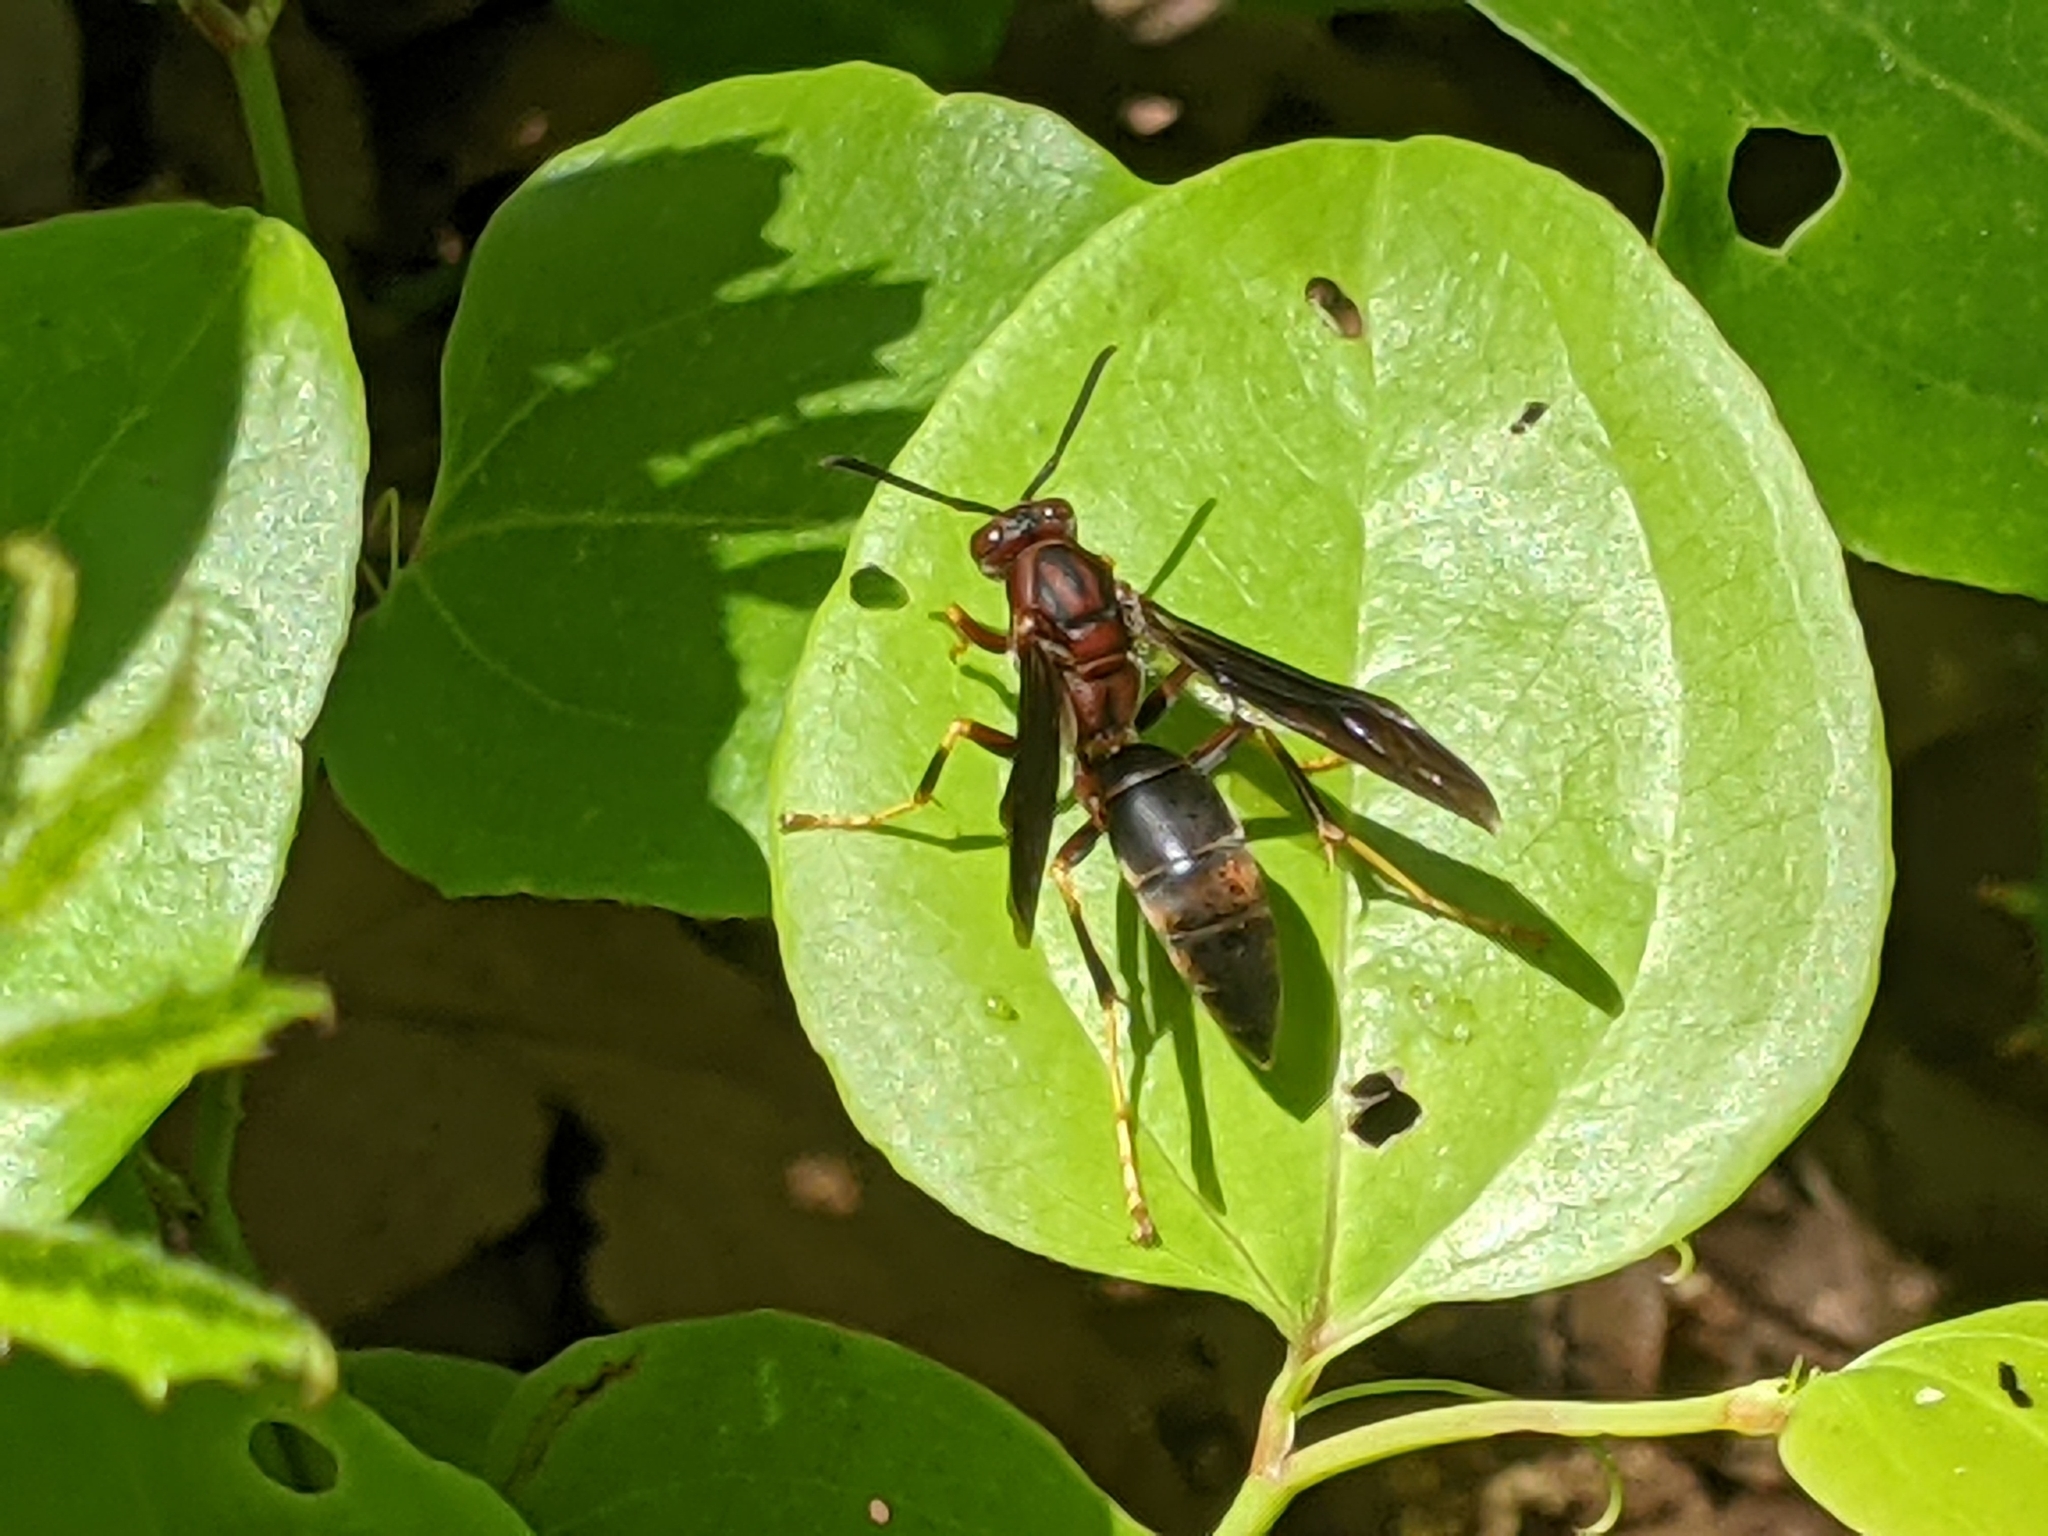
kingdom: Animalia
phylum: Arthropoda
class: Insecta
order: Hymenoptera
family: Eumenidae
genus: Polistes
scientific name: Polistes metricus
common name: Metric paper wasp
